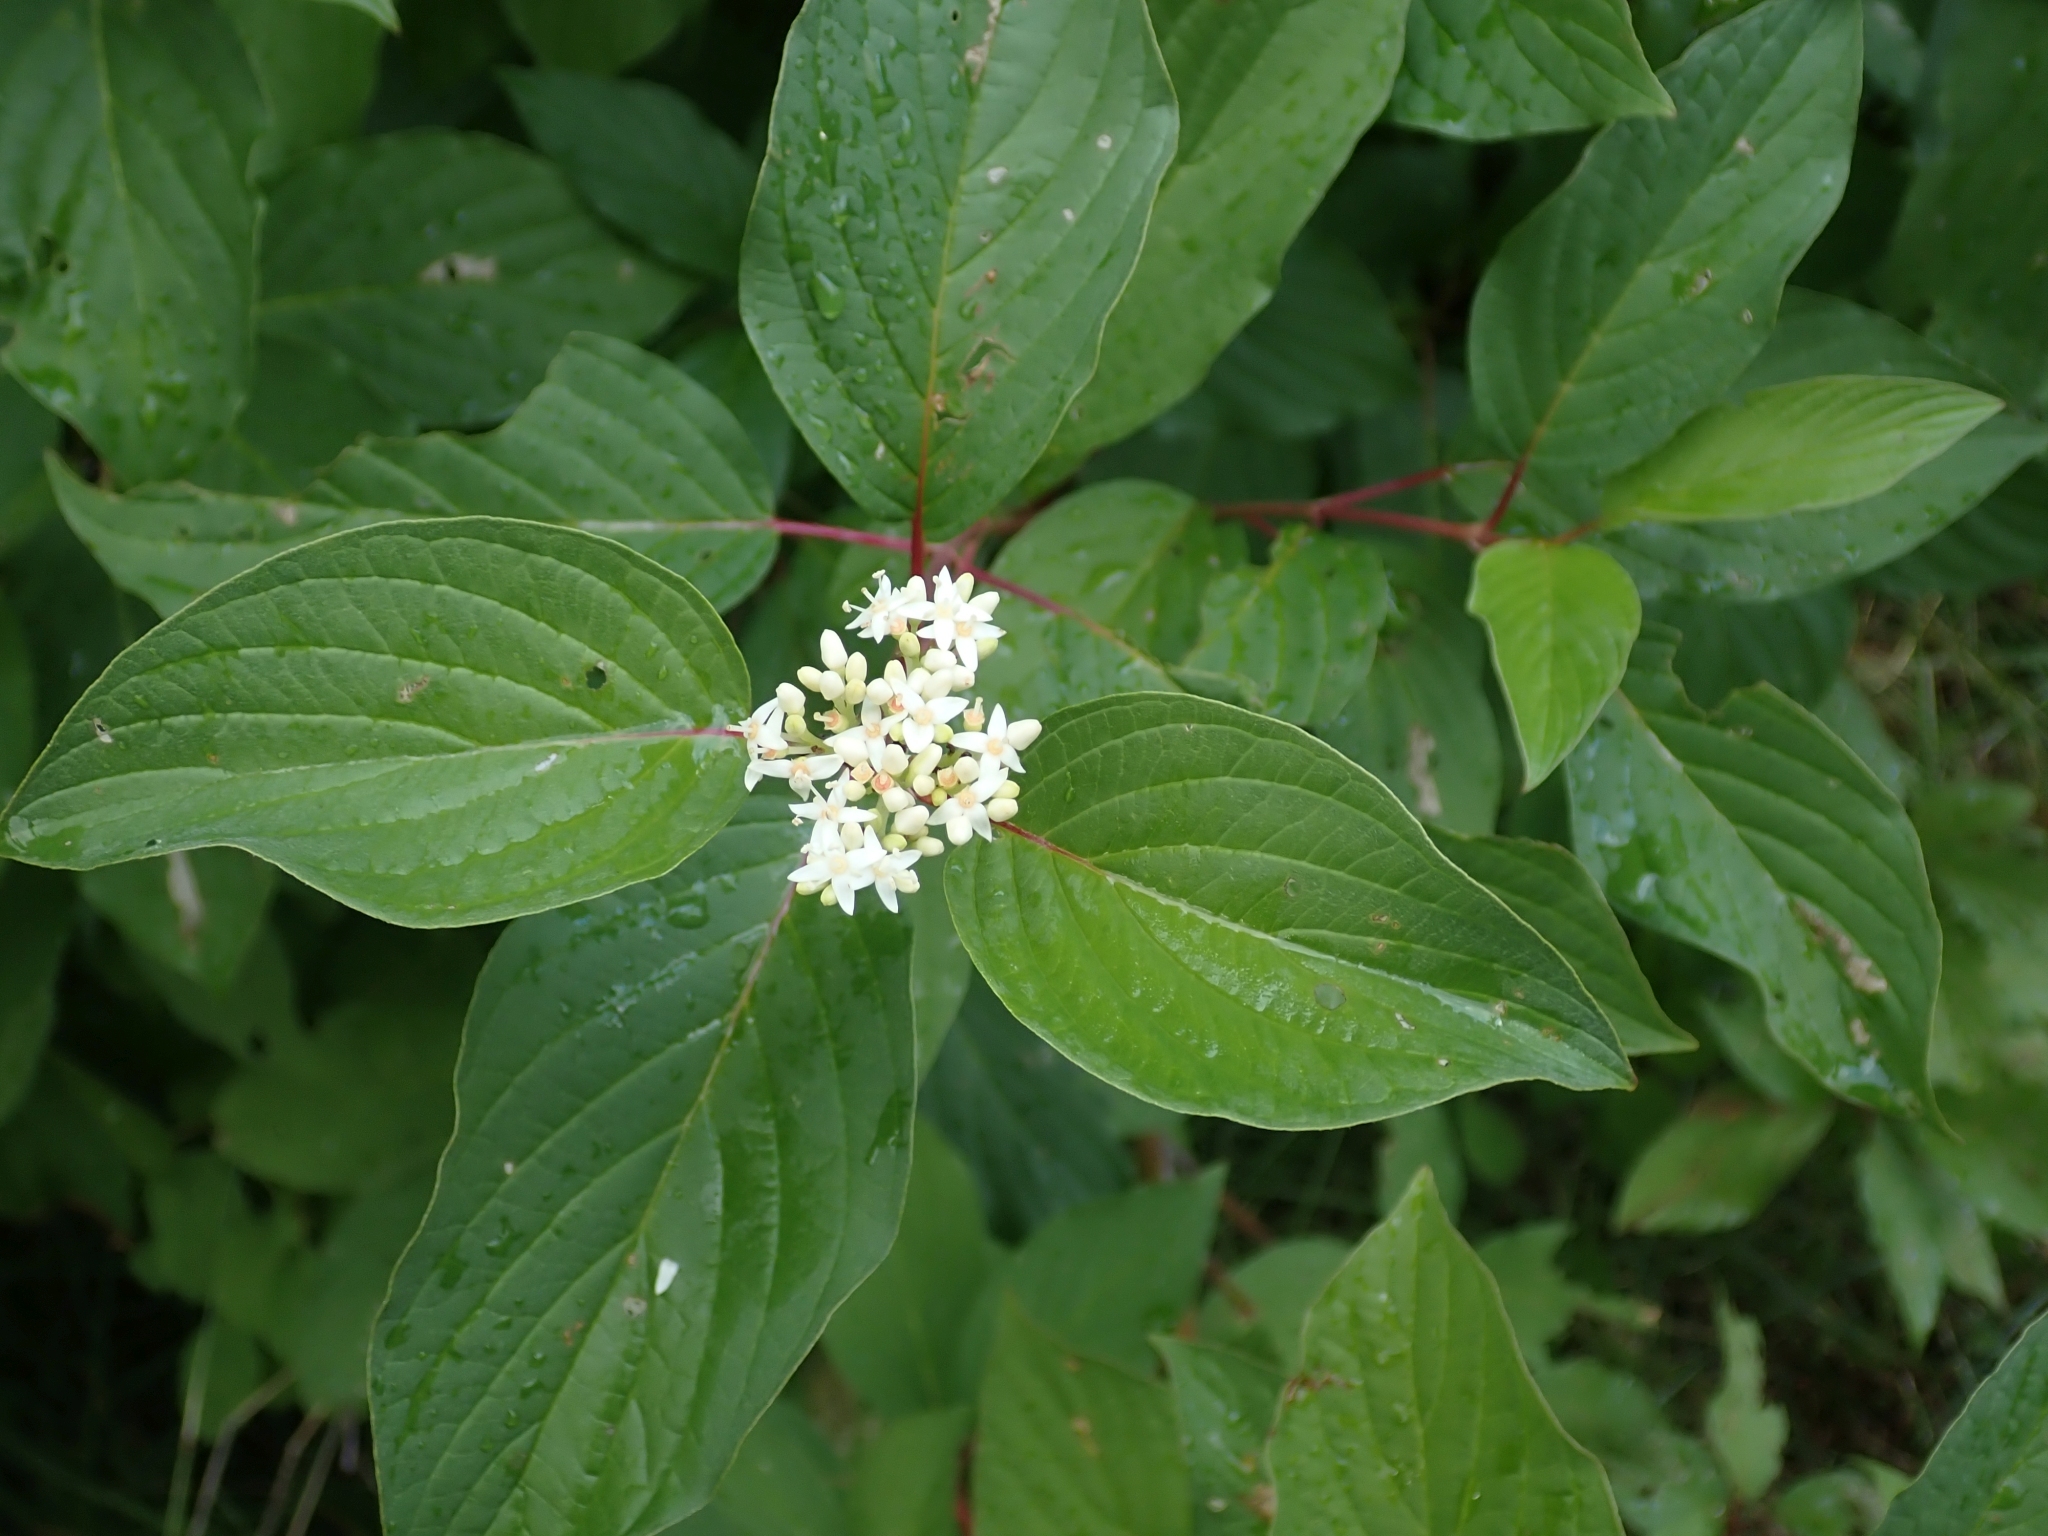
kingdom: Plantae
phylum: Tracheophyta
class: Magnoliopsida
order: Cornales
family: Cornaceae
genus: Cornus
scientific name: Cornus sericea
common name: Red-osier dogwood
